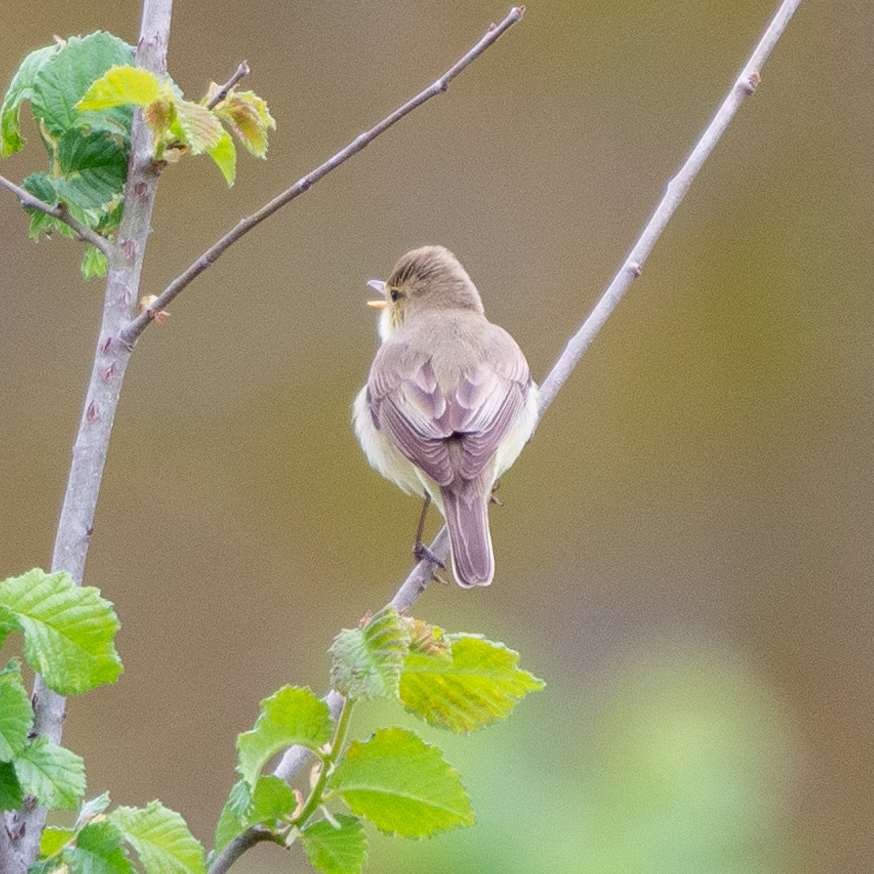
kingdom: Animalia
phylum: Chordata
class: Aves
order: Passeriformes
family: Acrocephalidae
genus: Hippolais
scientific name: Hippolais polyglotta
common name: Melodious warbler
